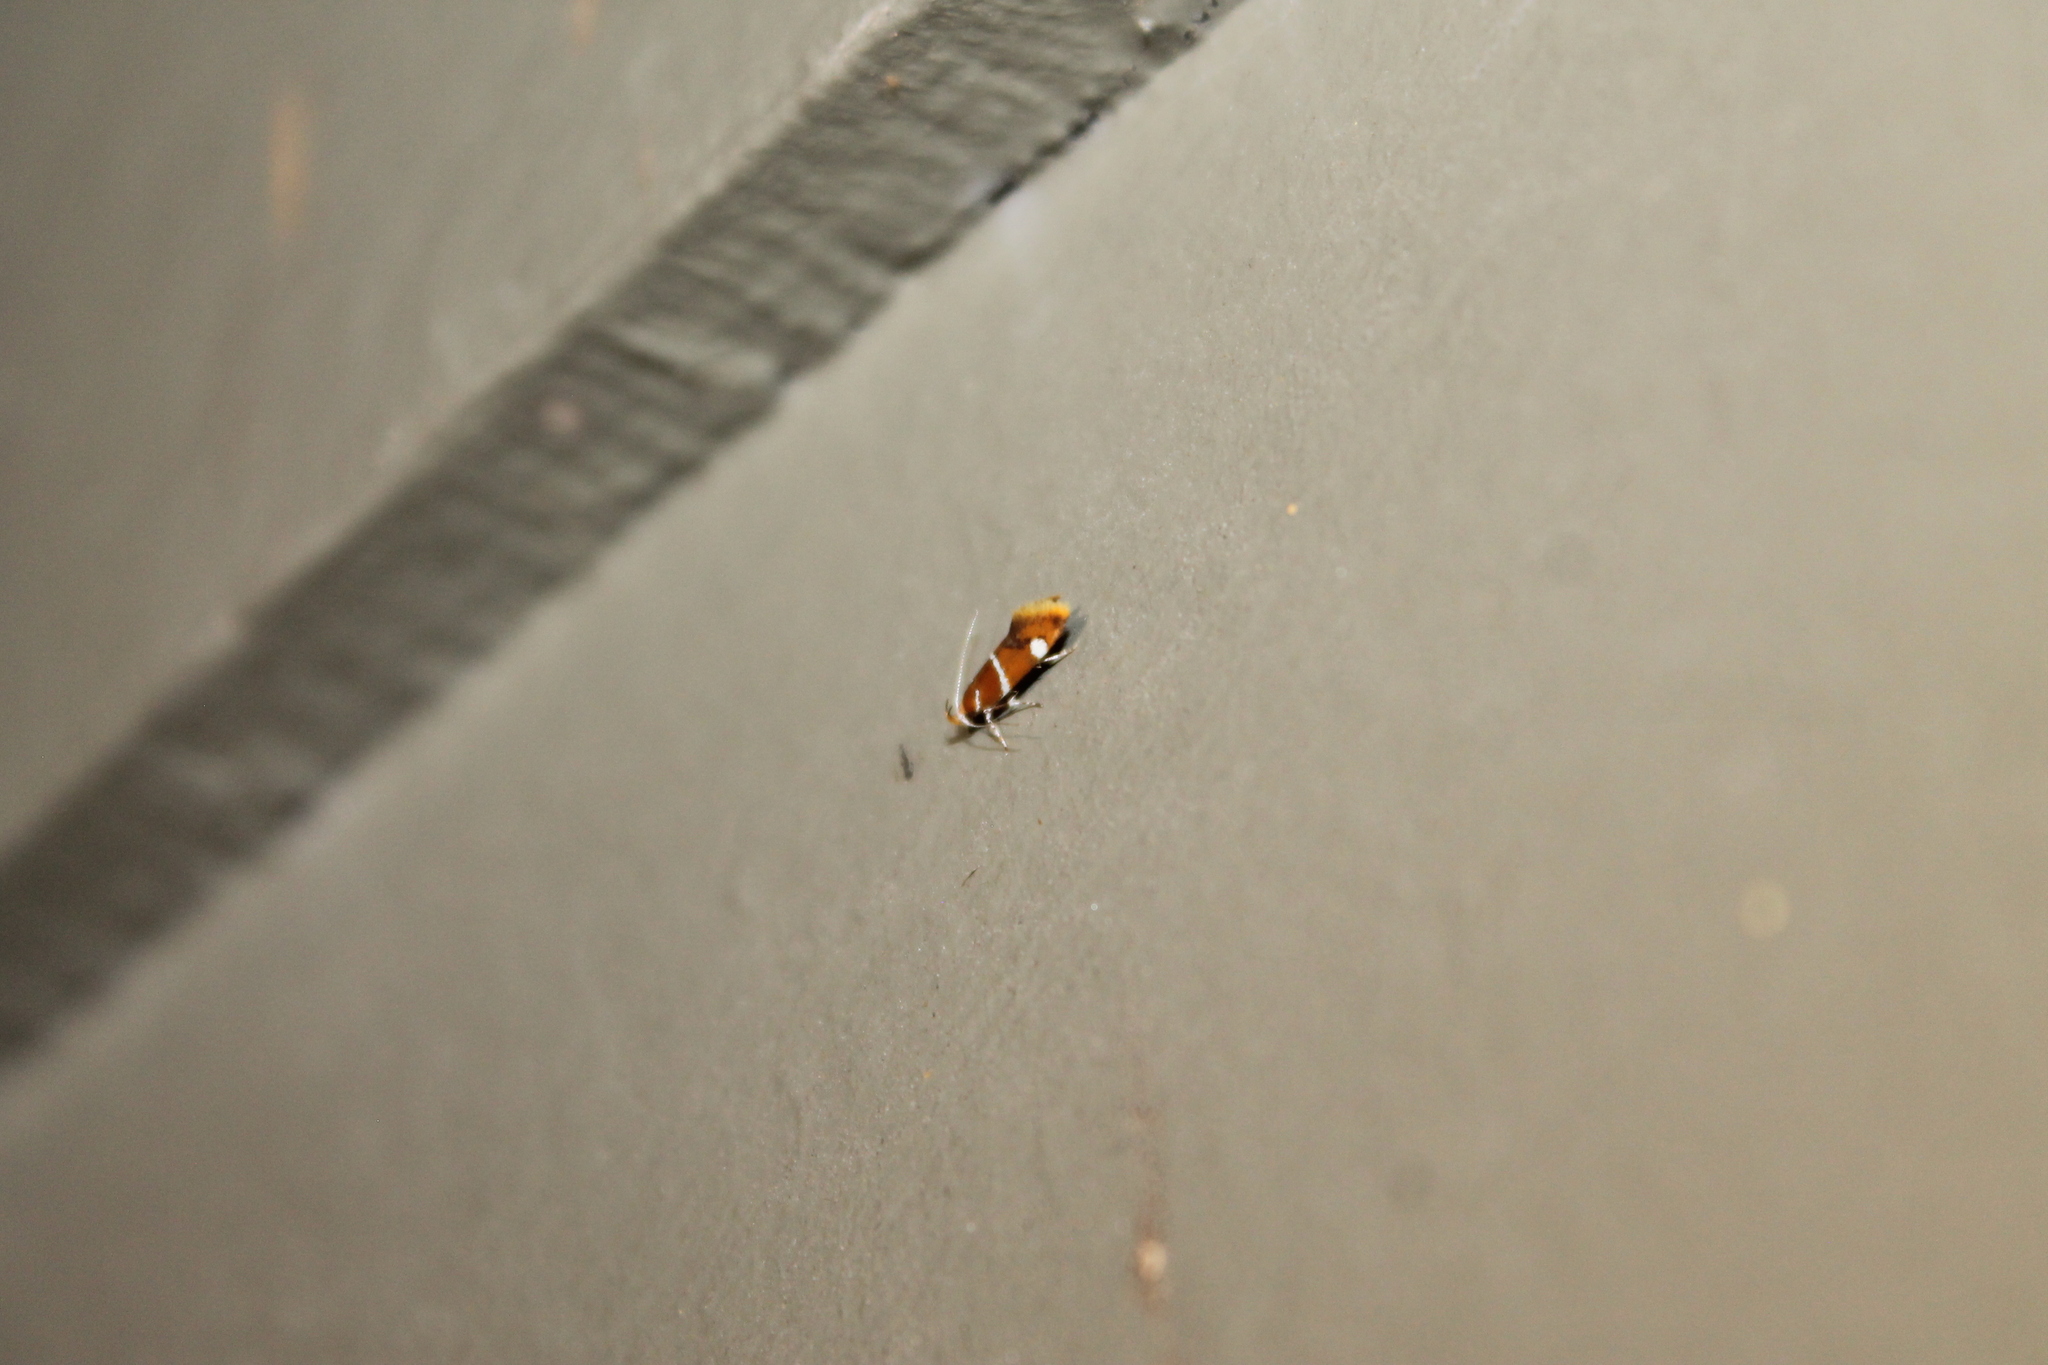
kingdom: Animalia
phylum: Arthropoda
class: Insecta
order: Lepidoptera
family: Oecophoridae
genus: Promalactis
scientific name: Promalactis suzukiella
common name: Moth
